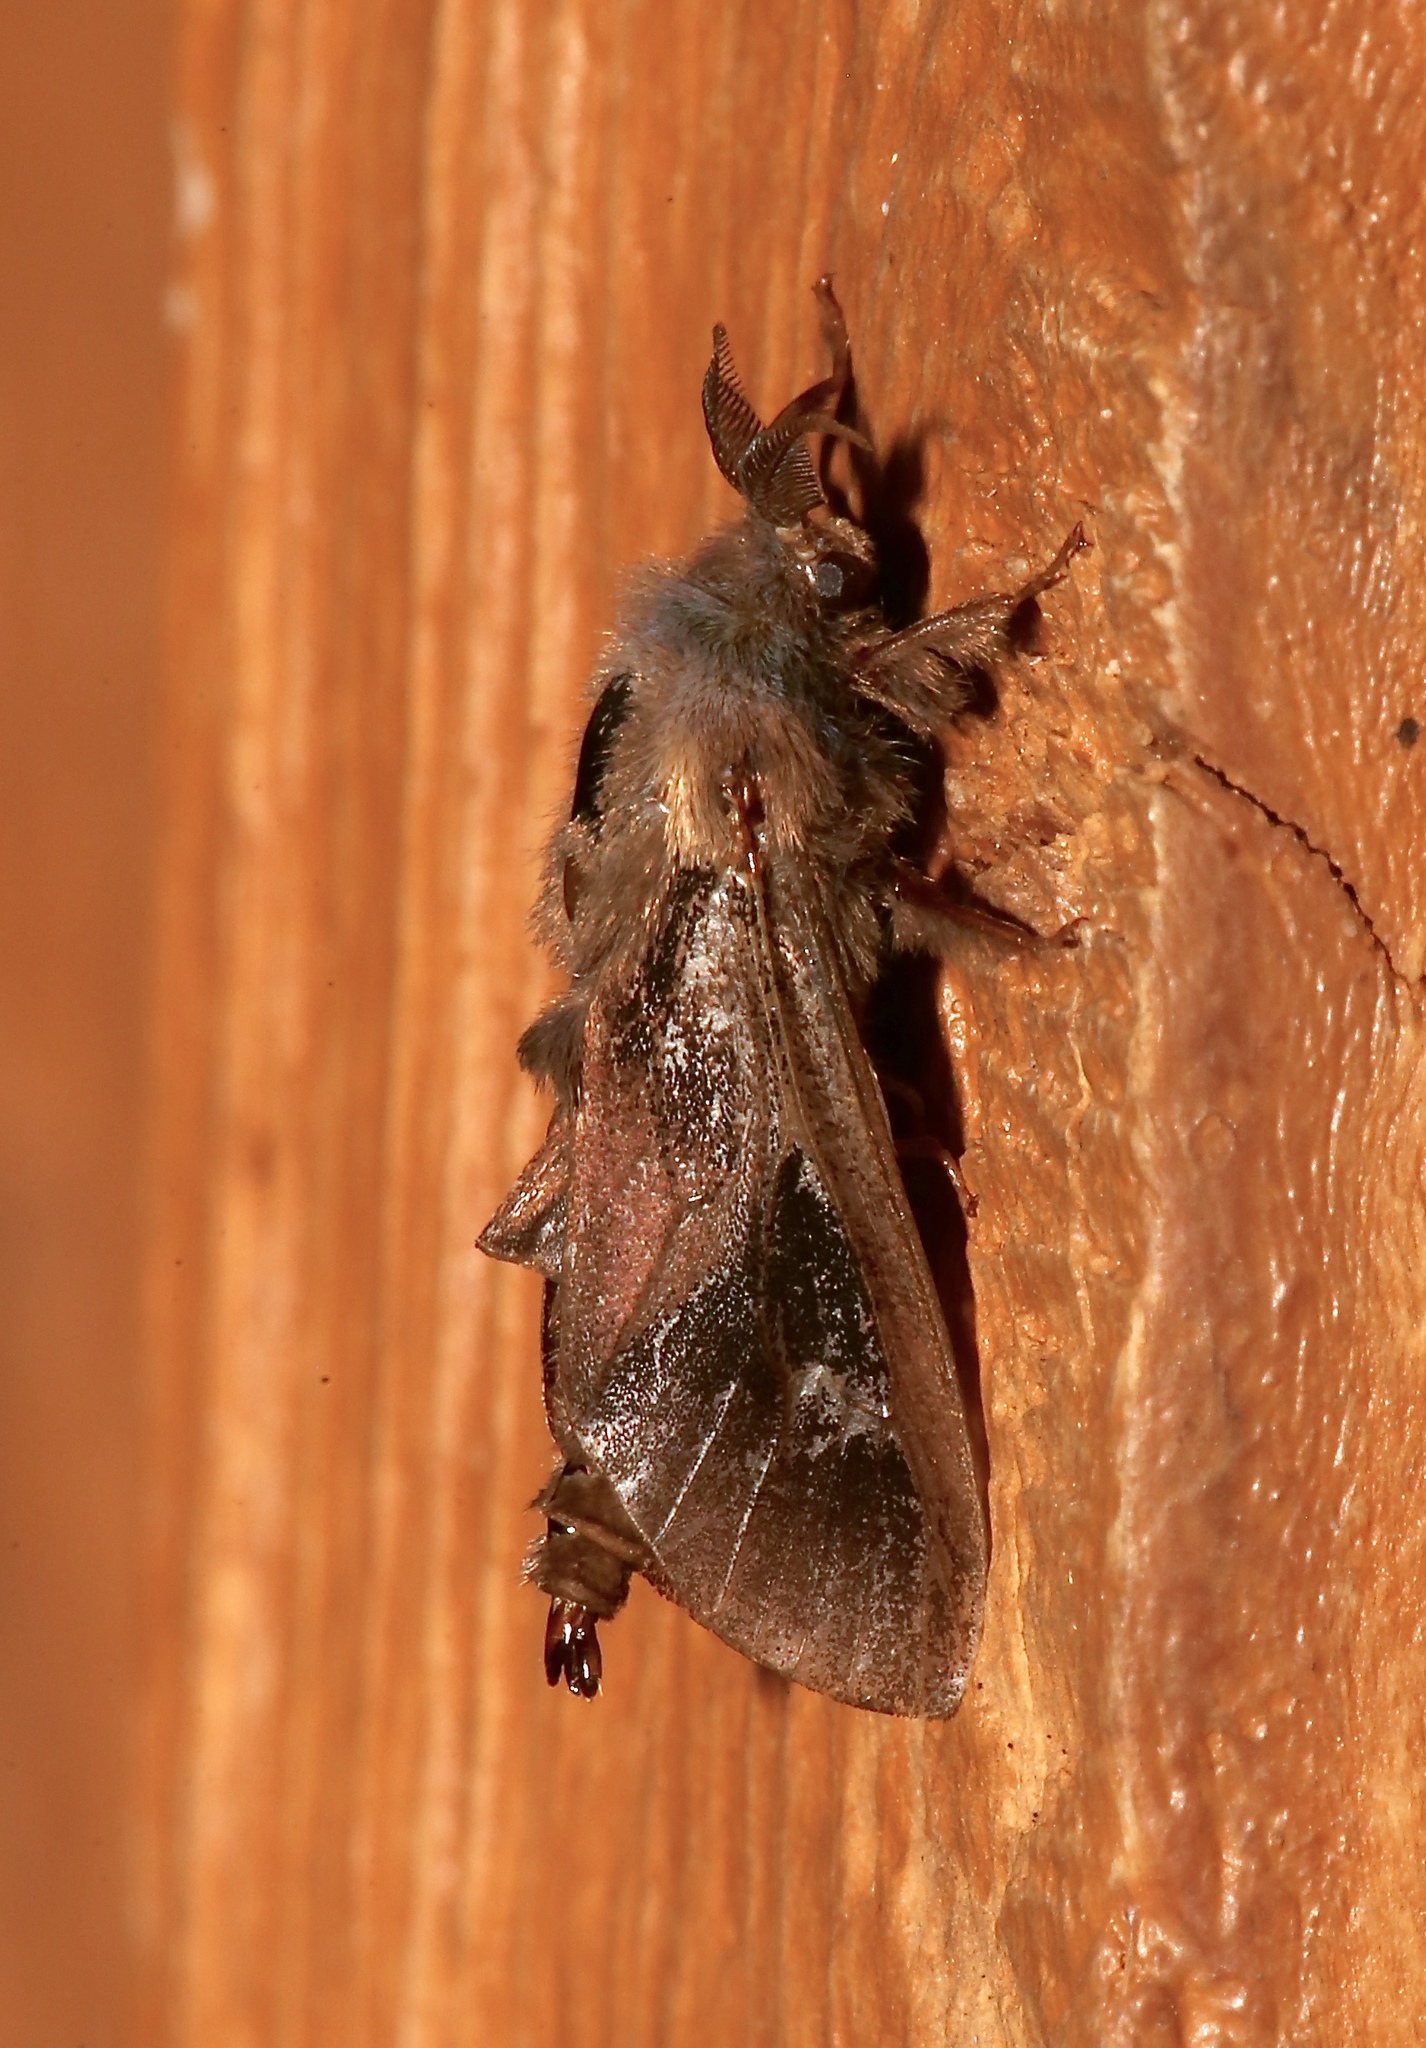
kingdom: Animalia
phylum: Arthropoda
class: Insecta
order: Lepidoptera
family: Psychidae
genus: Oiketicus
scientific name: Oiketicus
